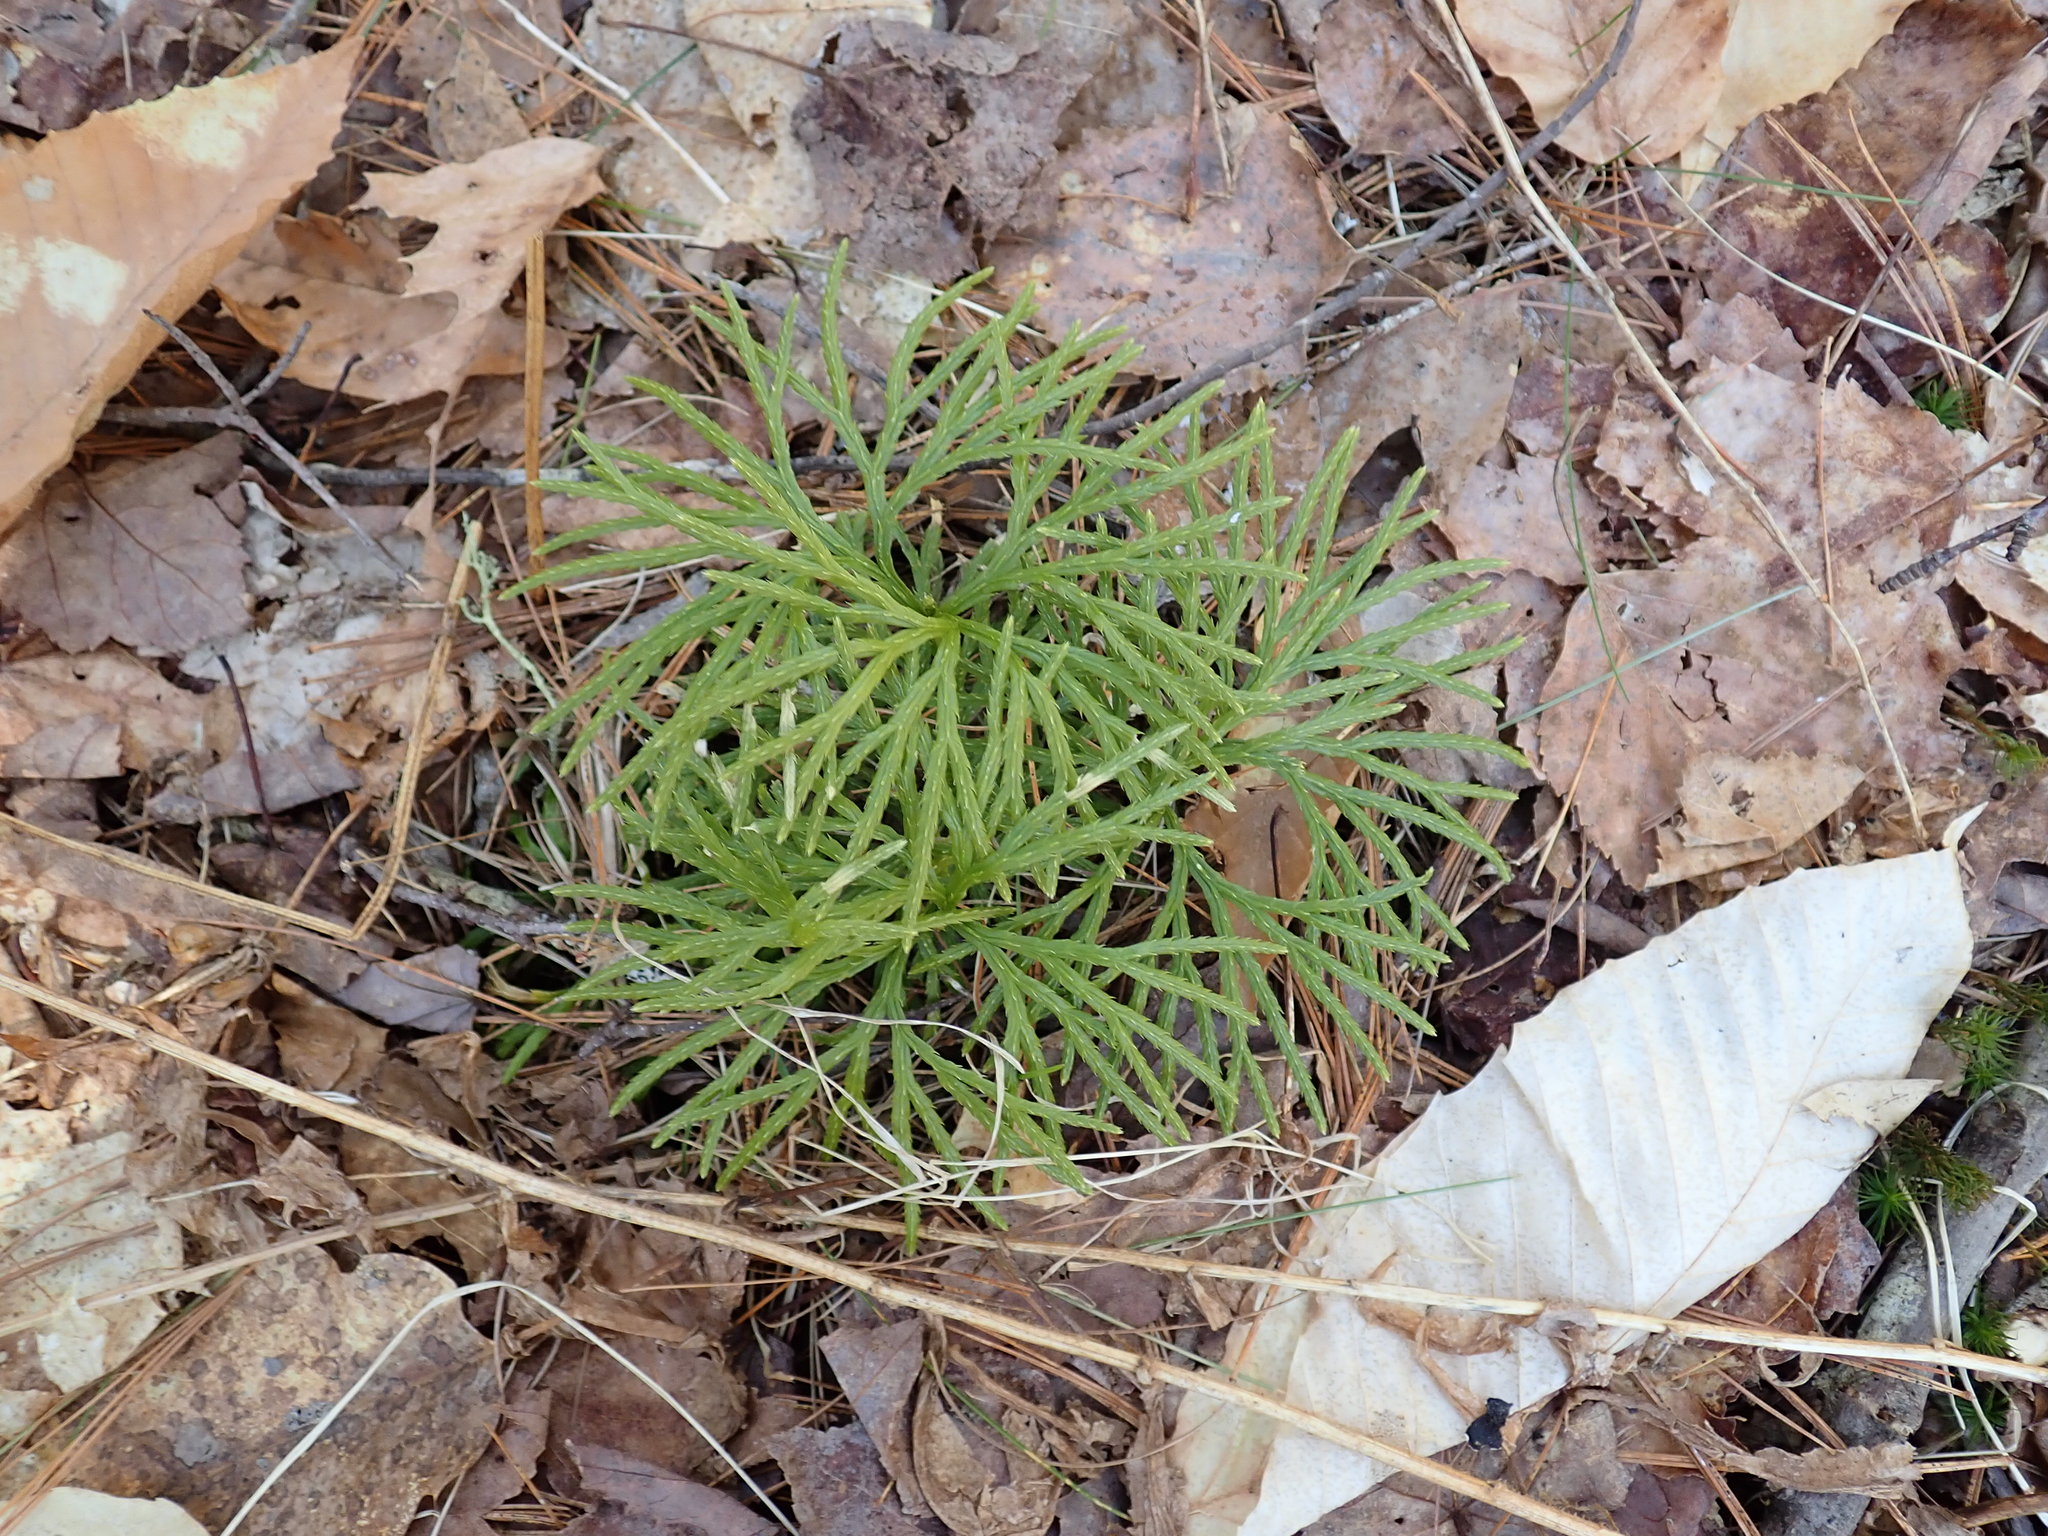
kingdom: Plantae
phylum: Tracheophyta
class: Lycopodiopsida
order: Lycopodiales
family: Lycopodiaceae
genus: Diphasiastrum
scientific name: Diphasiastrum digitatum
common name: Southern running-pine
